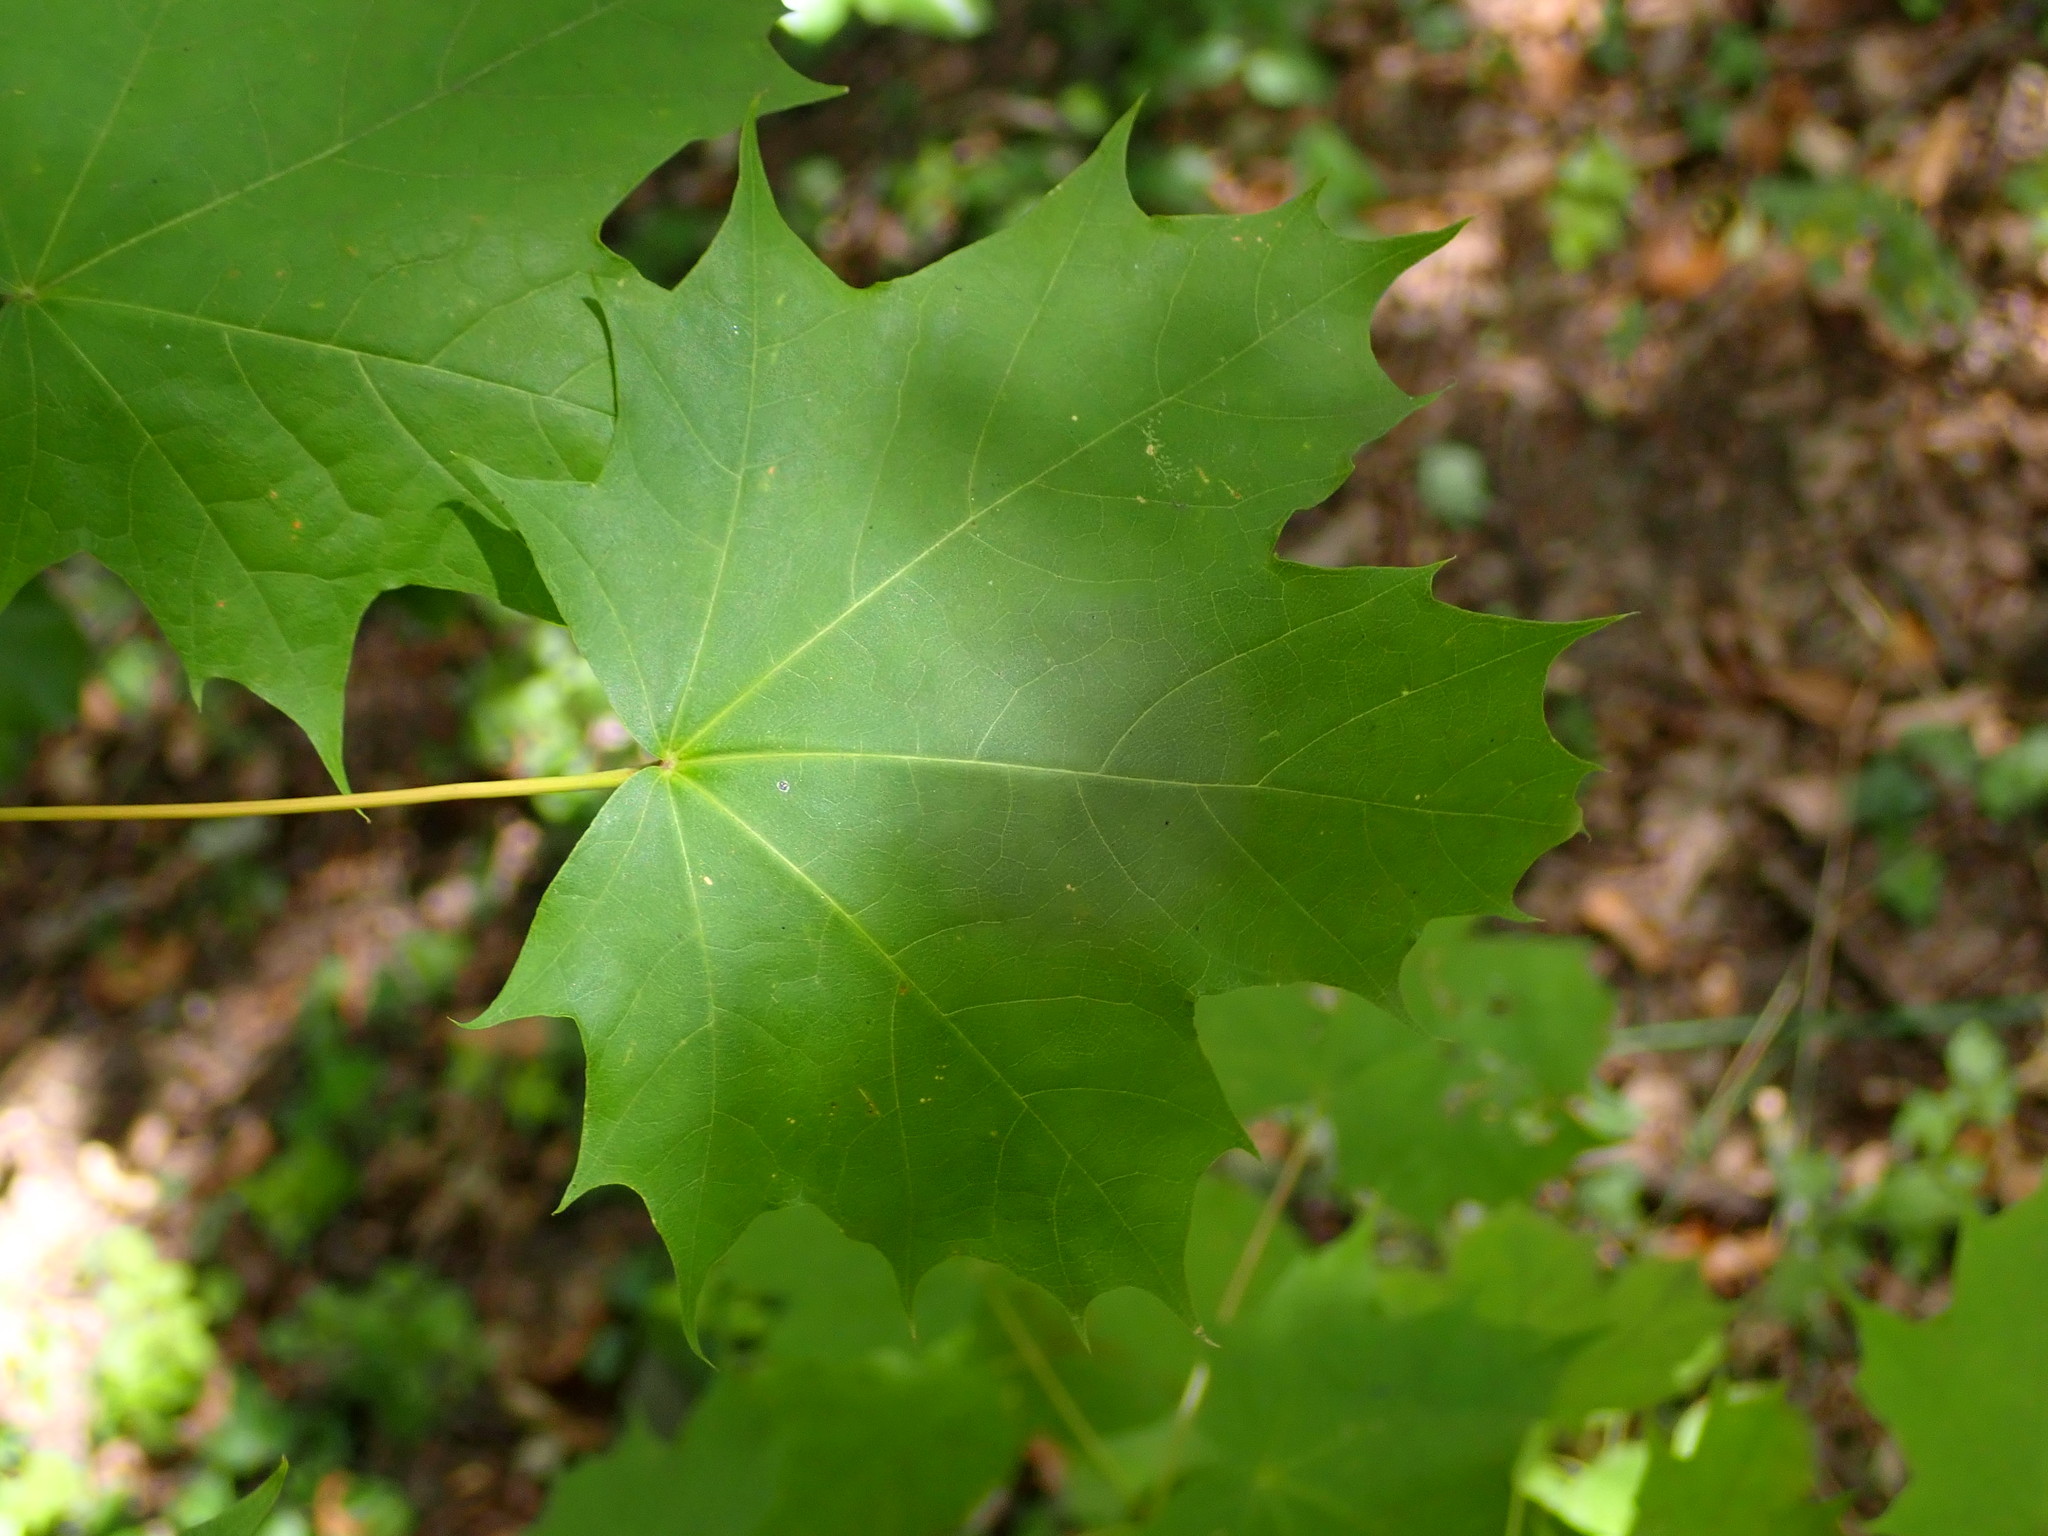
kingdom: Plantae
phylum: Tracheophyta
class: Magnoliopsida
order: Sapindales
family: Sapindaceae
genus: Acer
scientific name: Acer platanoides
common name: Norway maple
